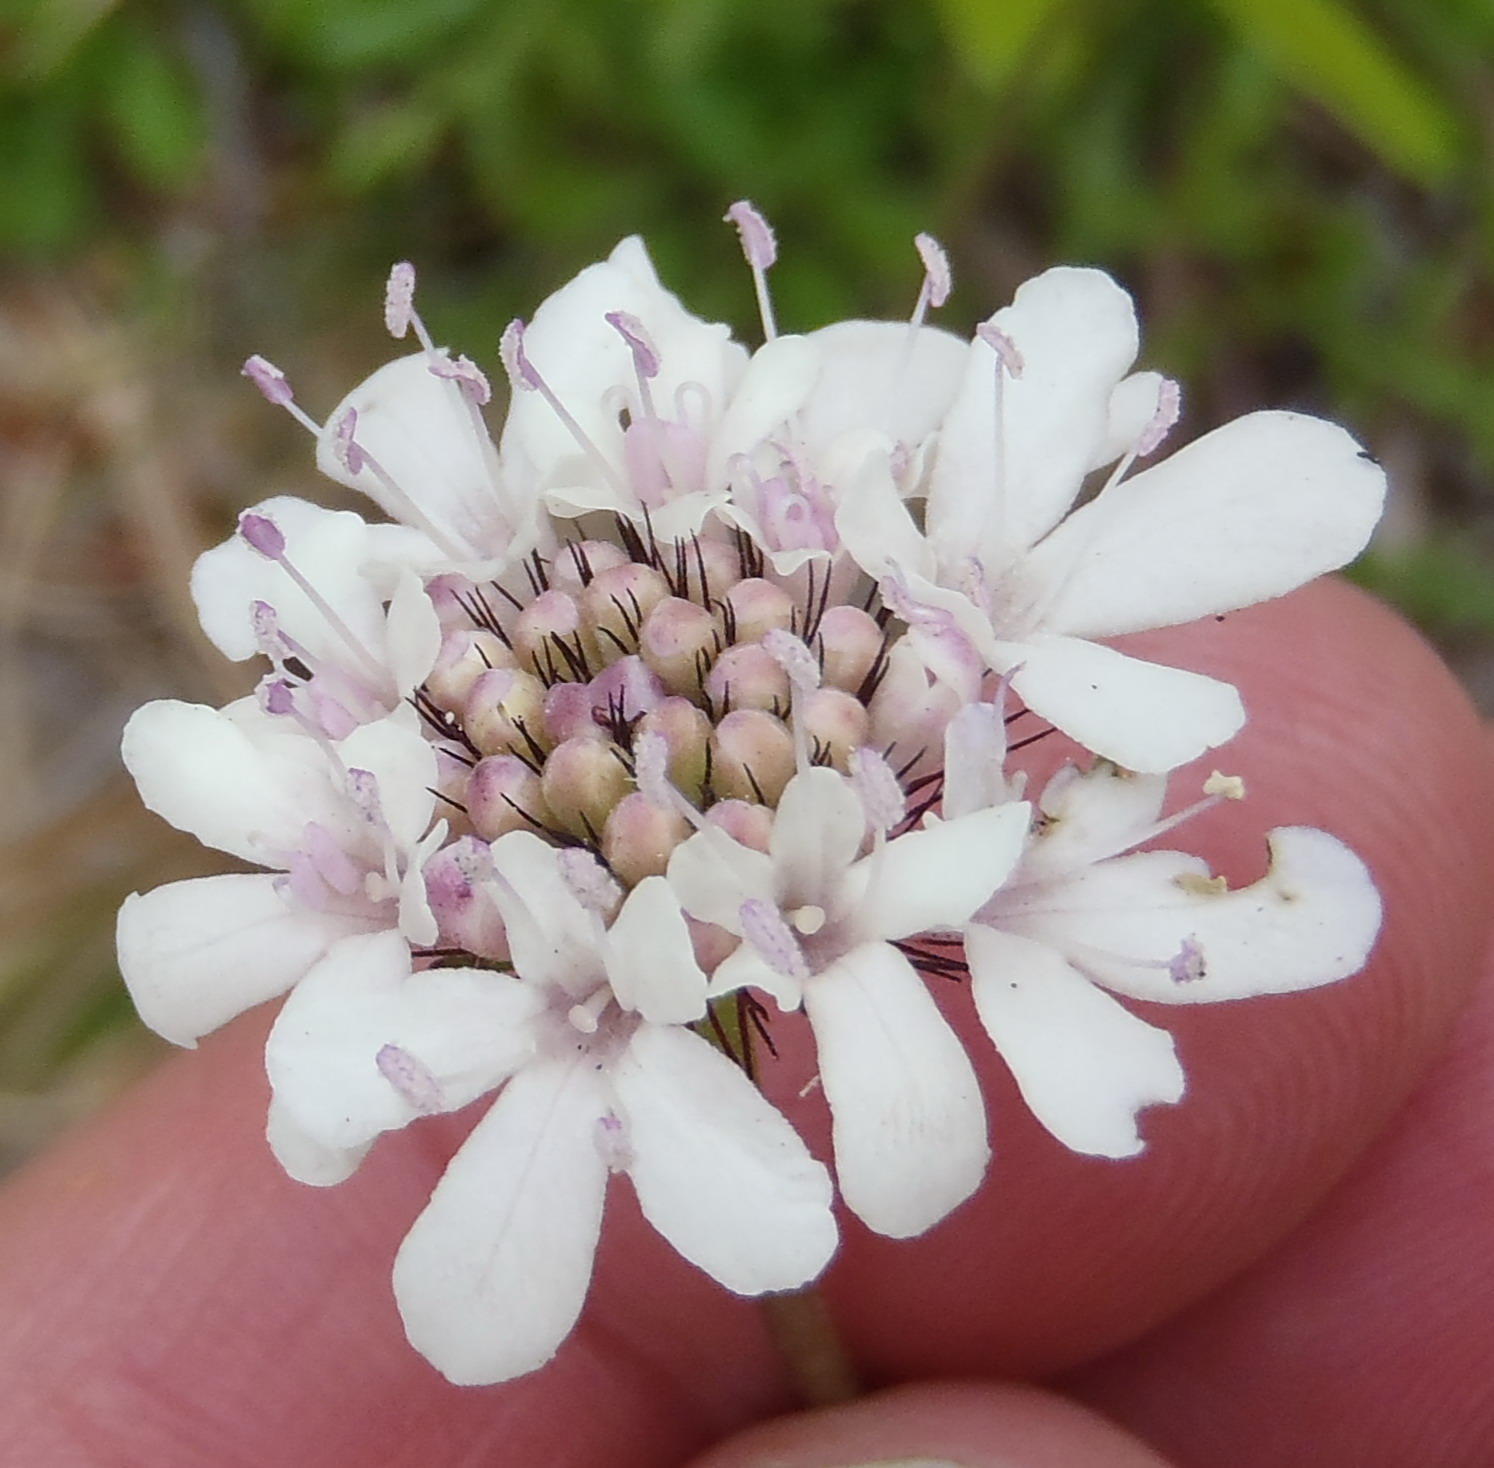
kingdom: Plantae
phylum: Tracheophyta
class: Magnoliopsida
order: Dipsacales
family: Caprifoliaceae
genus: Scabiosa
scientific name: Scabiosa columbaria
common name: Small scabious
